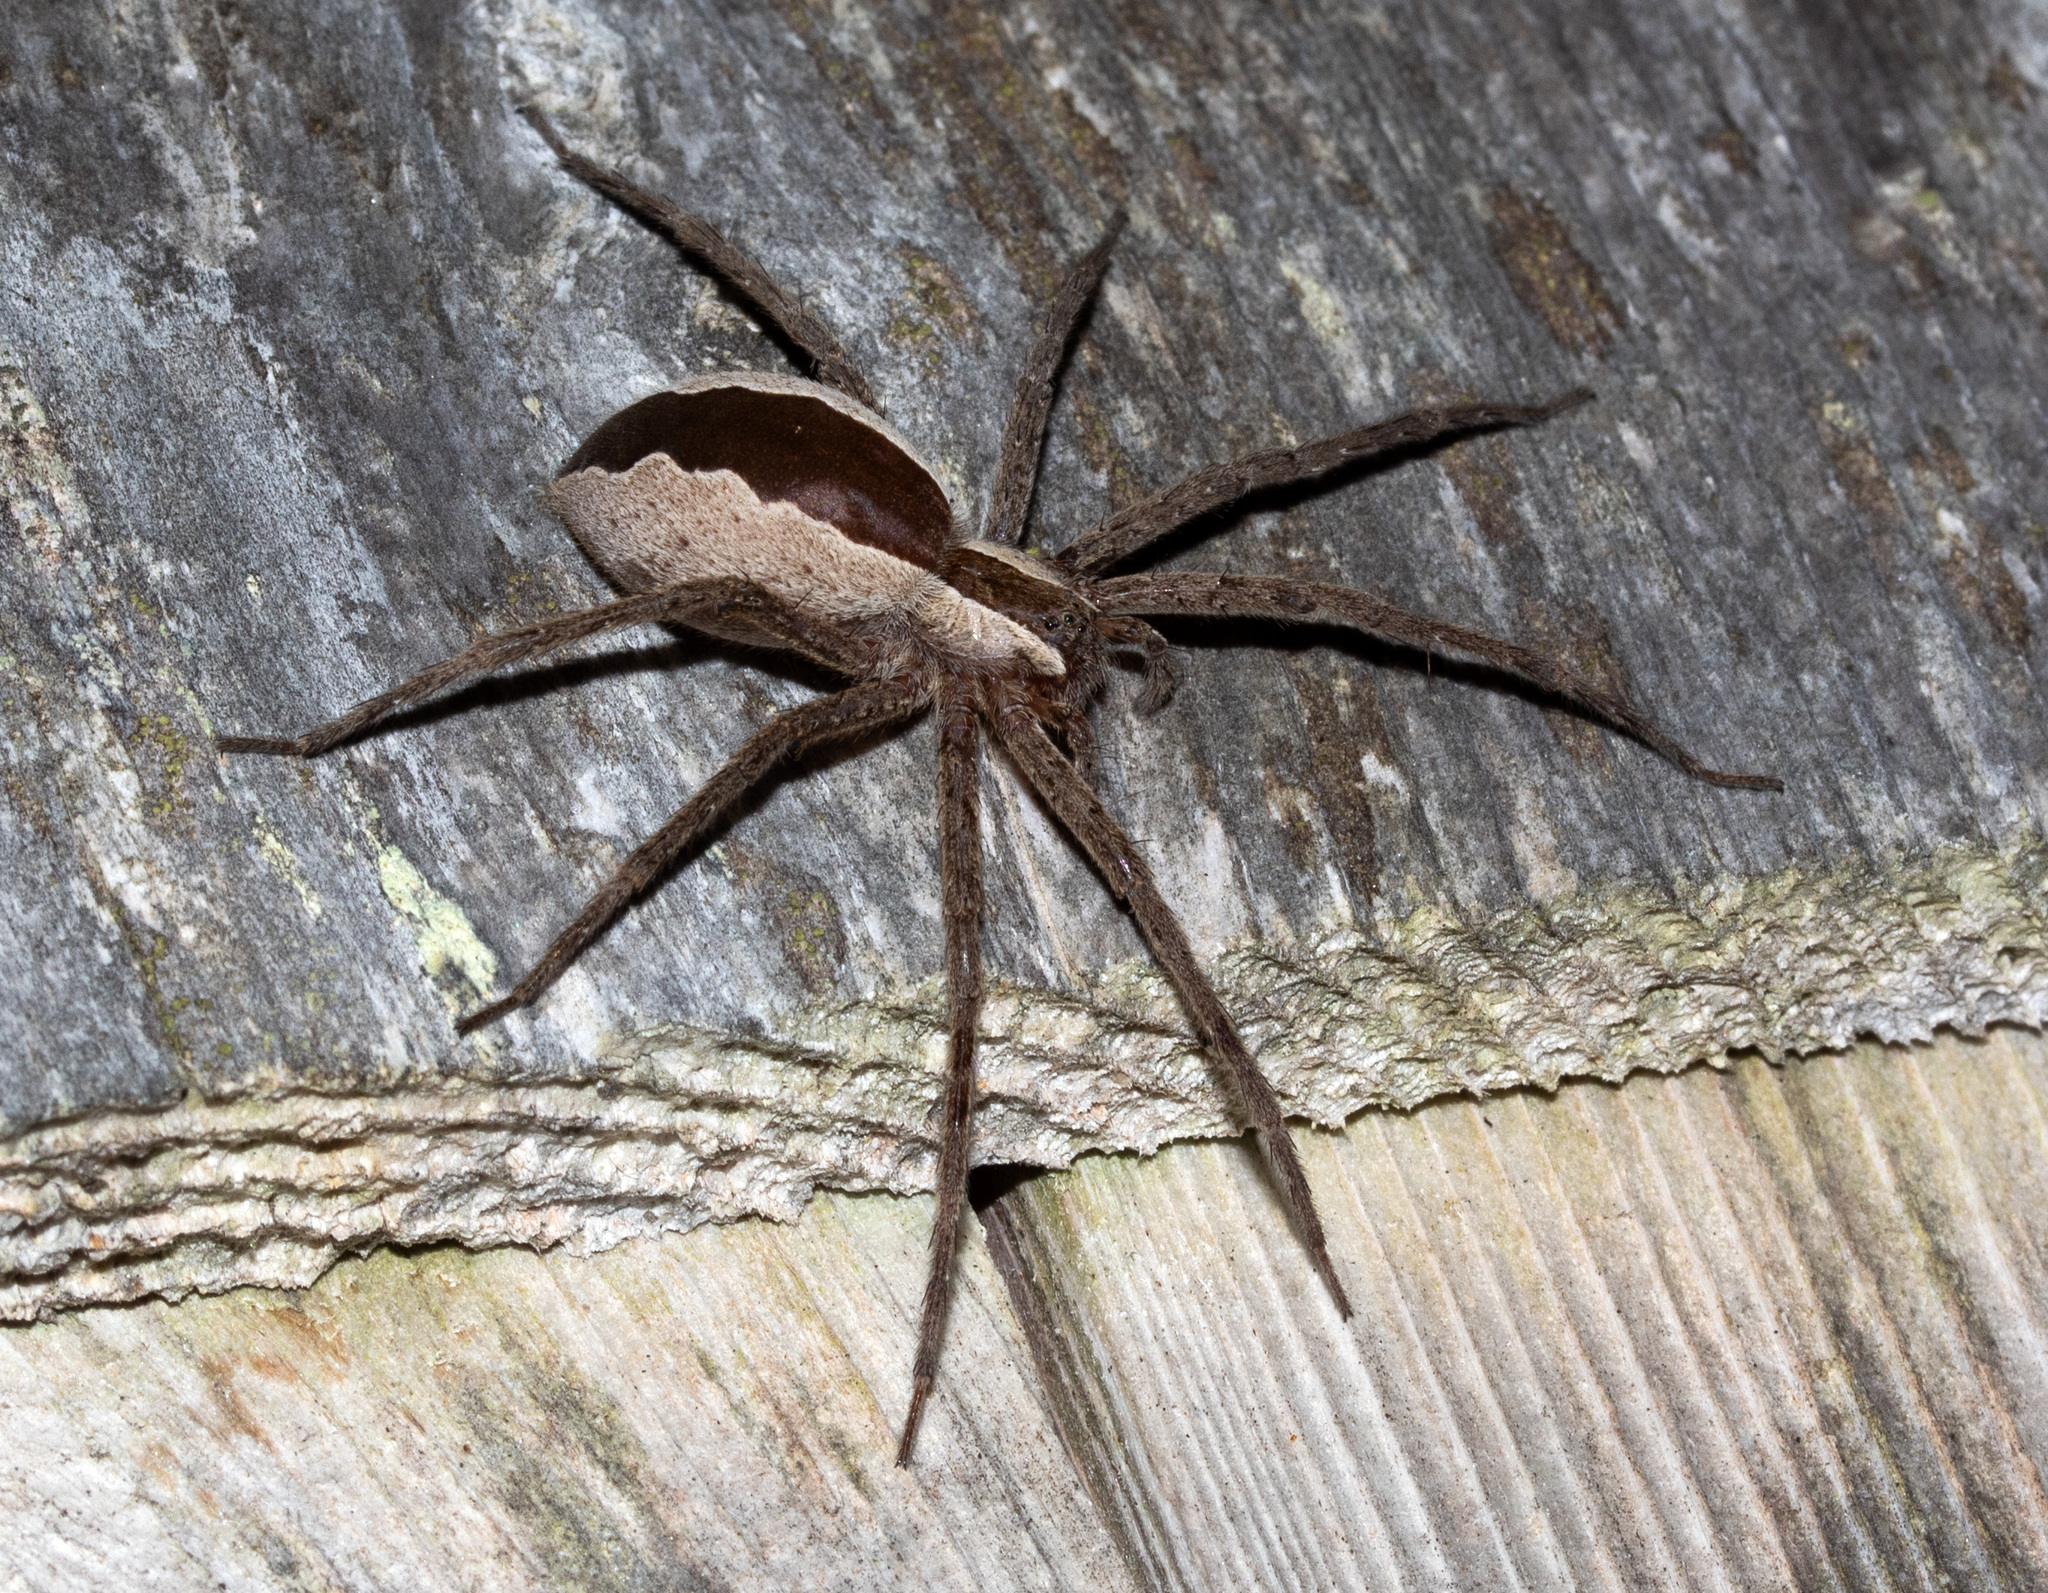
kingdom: Animalia
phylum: Arthropoda
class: Arachnida
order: Araneae
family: Pisauridae
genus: Pisaurina
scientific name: Pisaurina mira
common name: American nursery web spider
